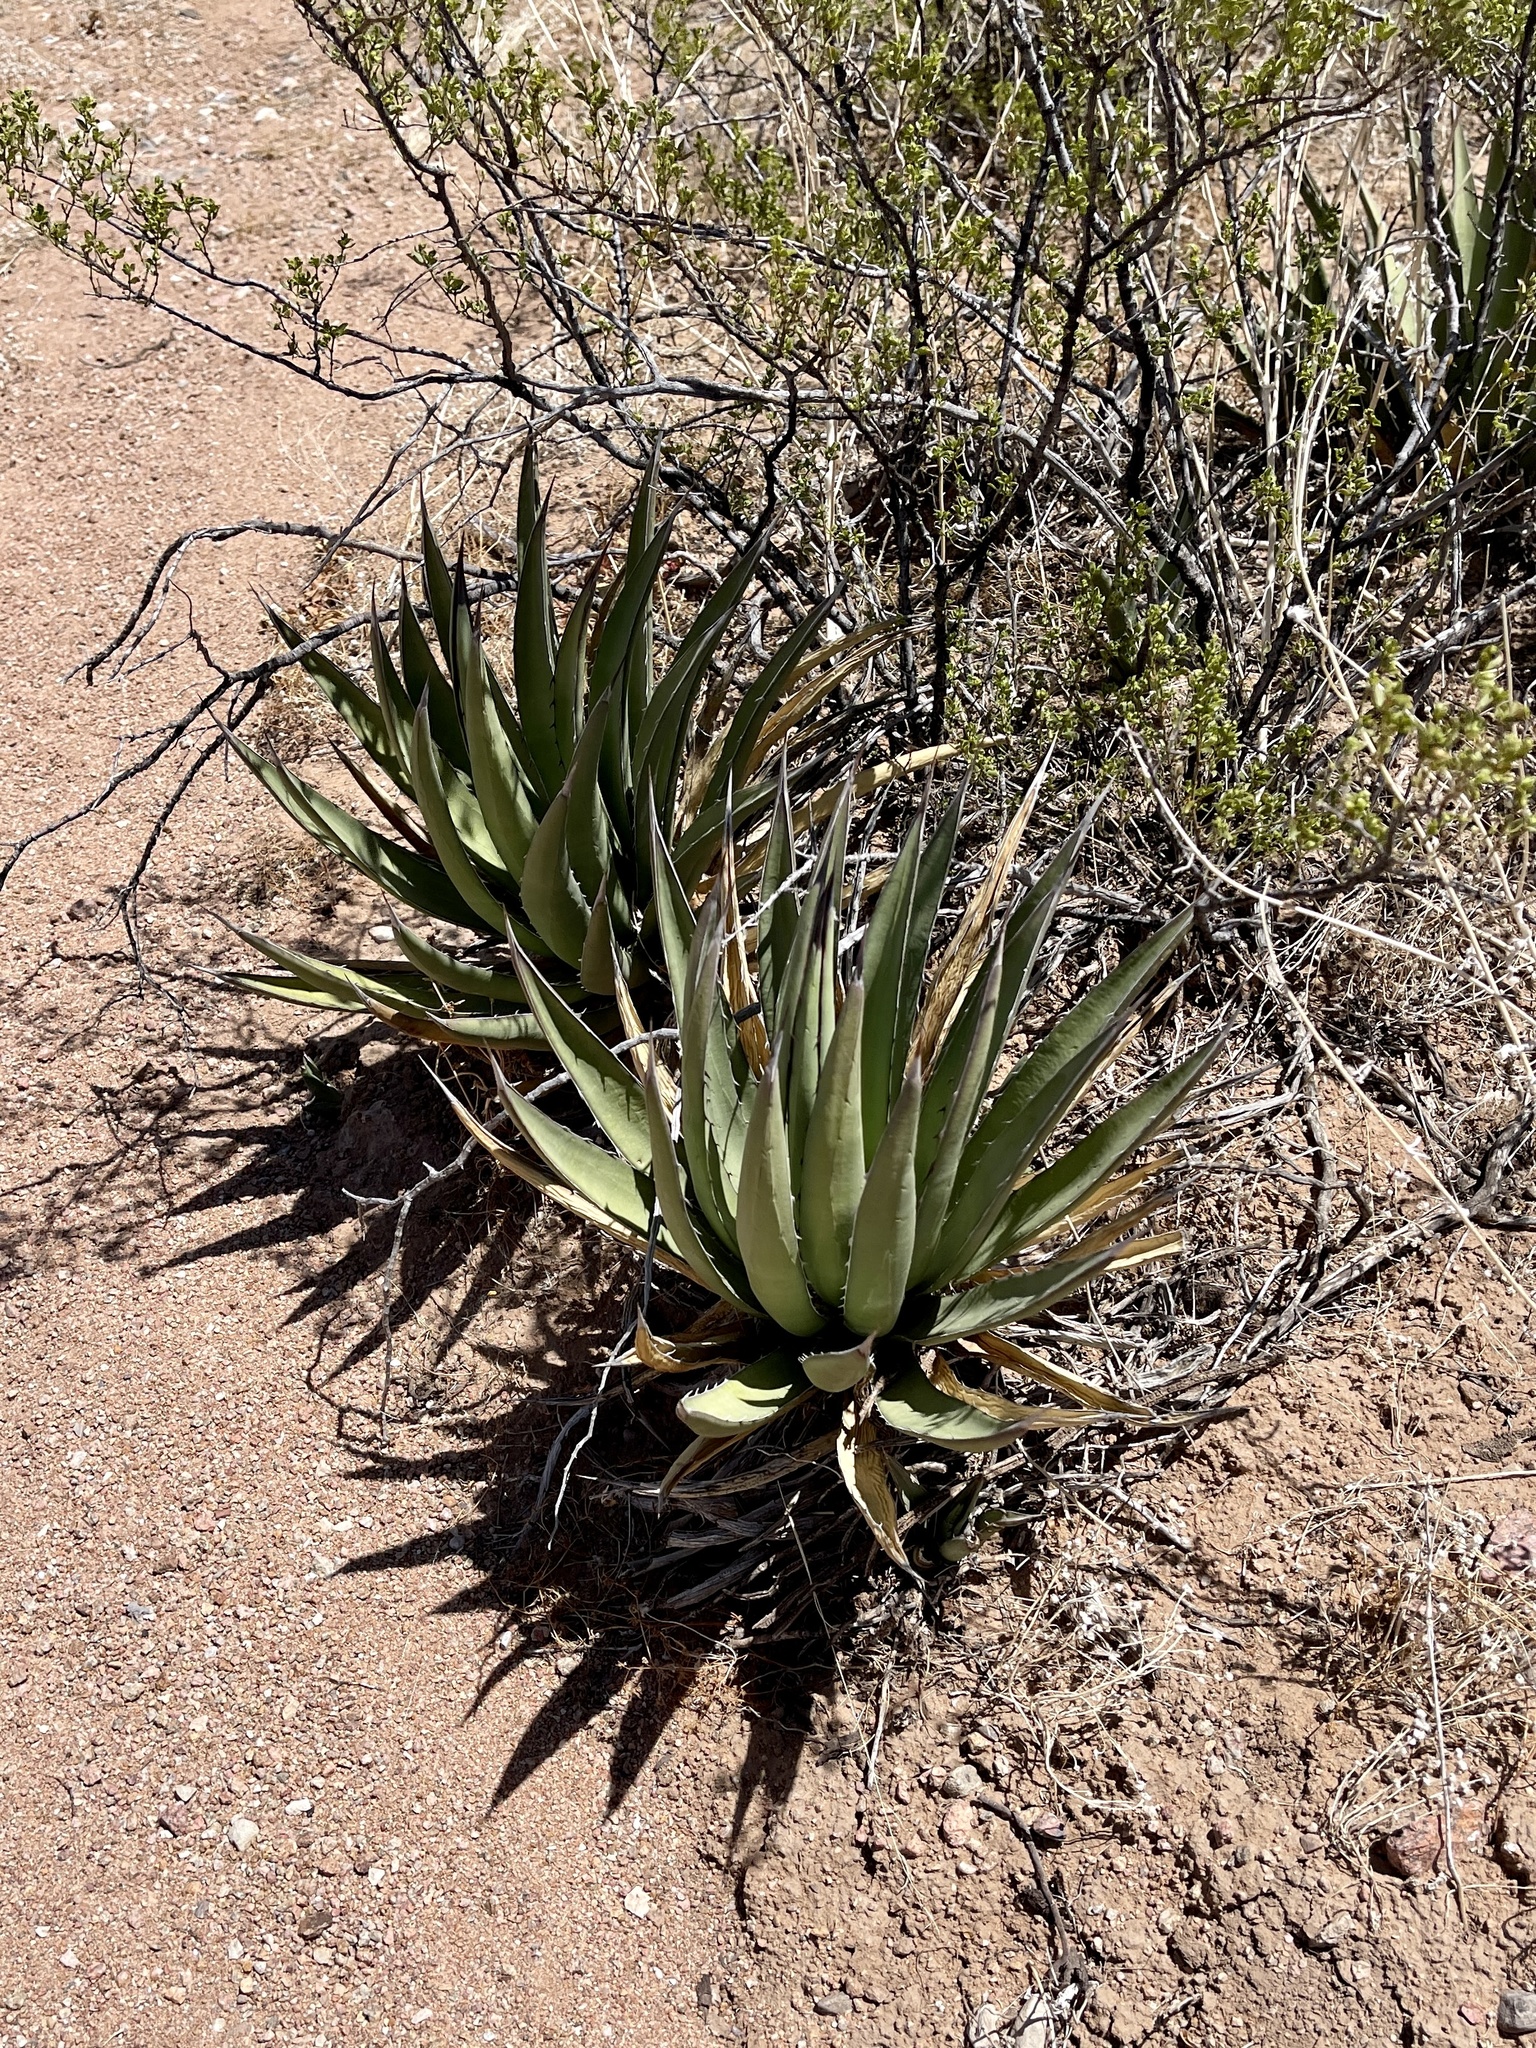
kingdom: Plantae
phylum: Tracheophyta
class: Liliopsida
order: Asparagales
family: Asparagaceae
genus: Agave
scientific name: Agave lechuguilla
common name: Lecheguilla agave
